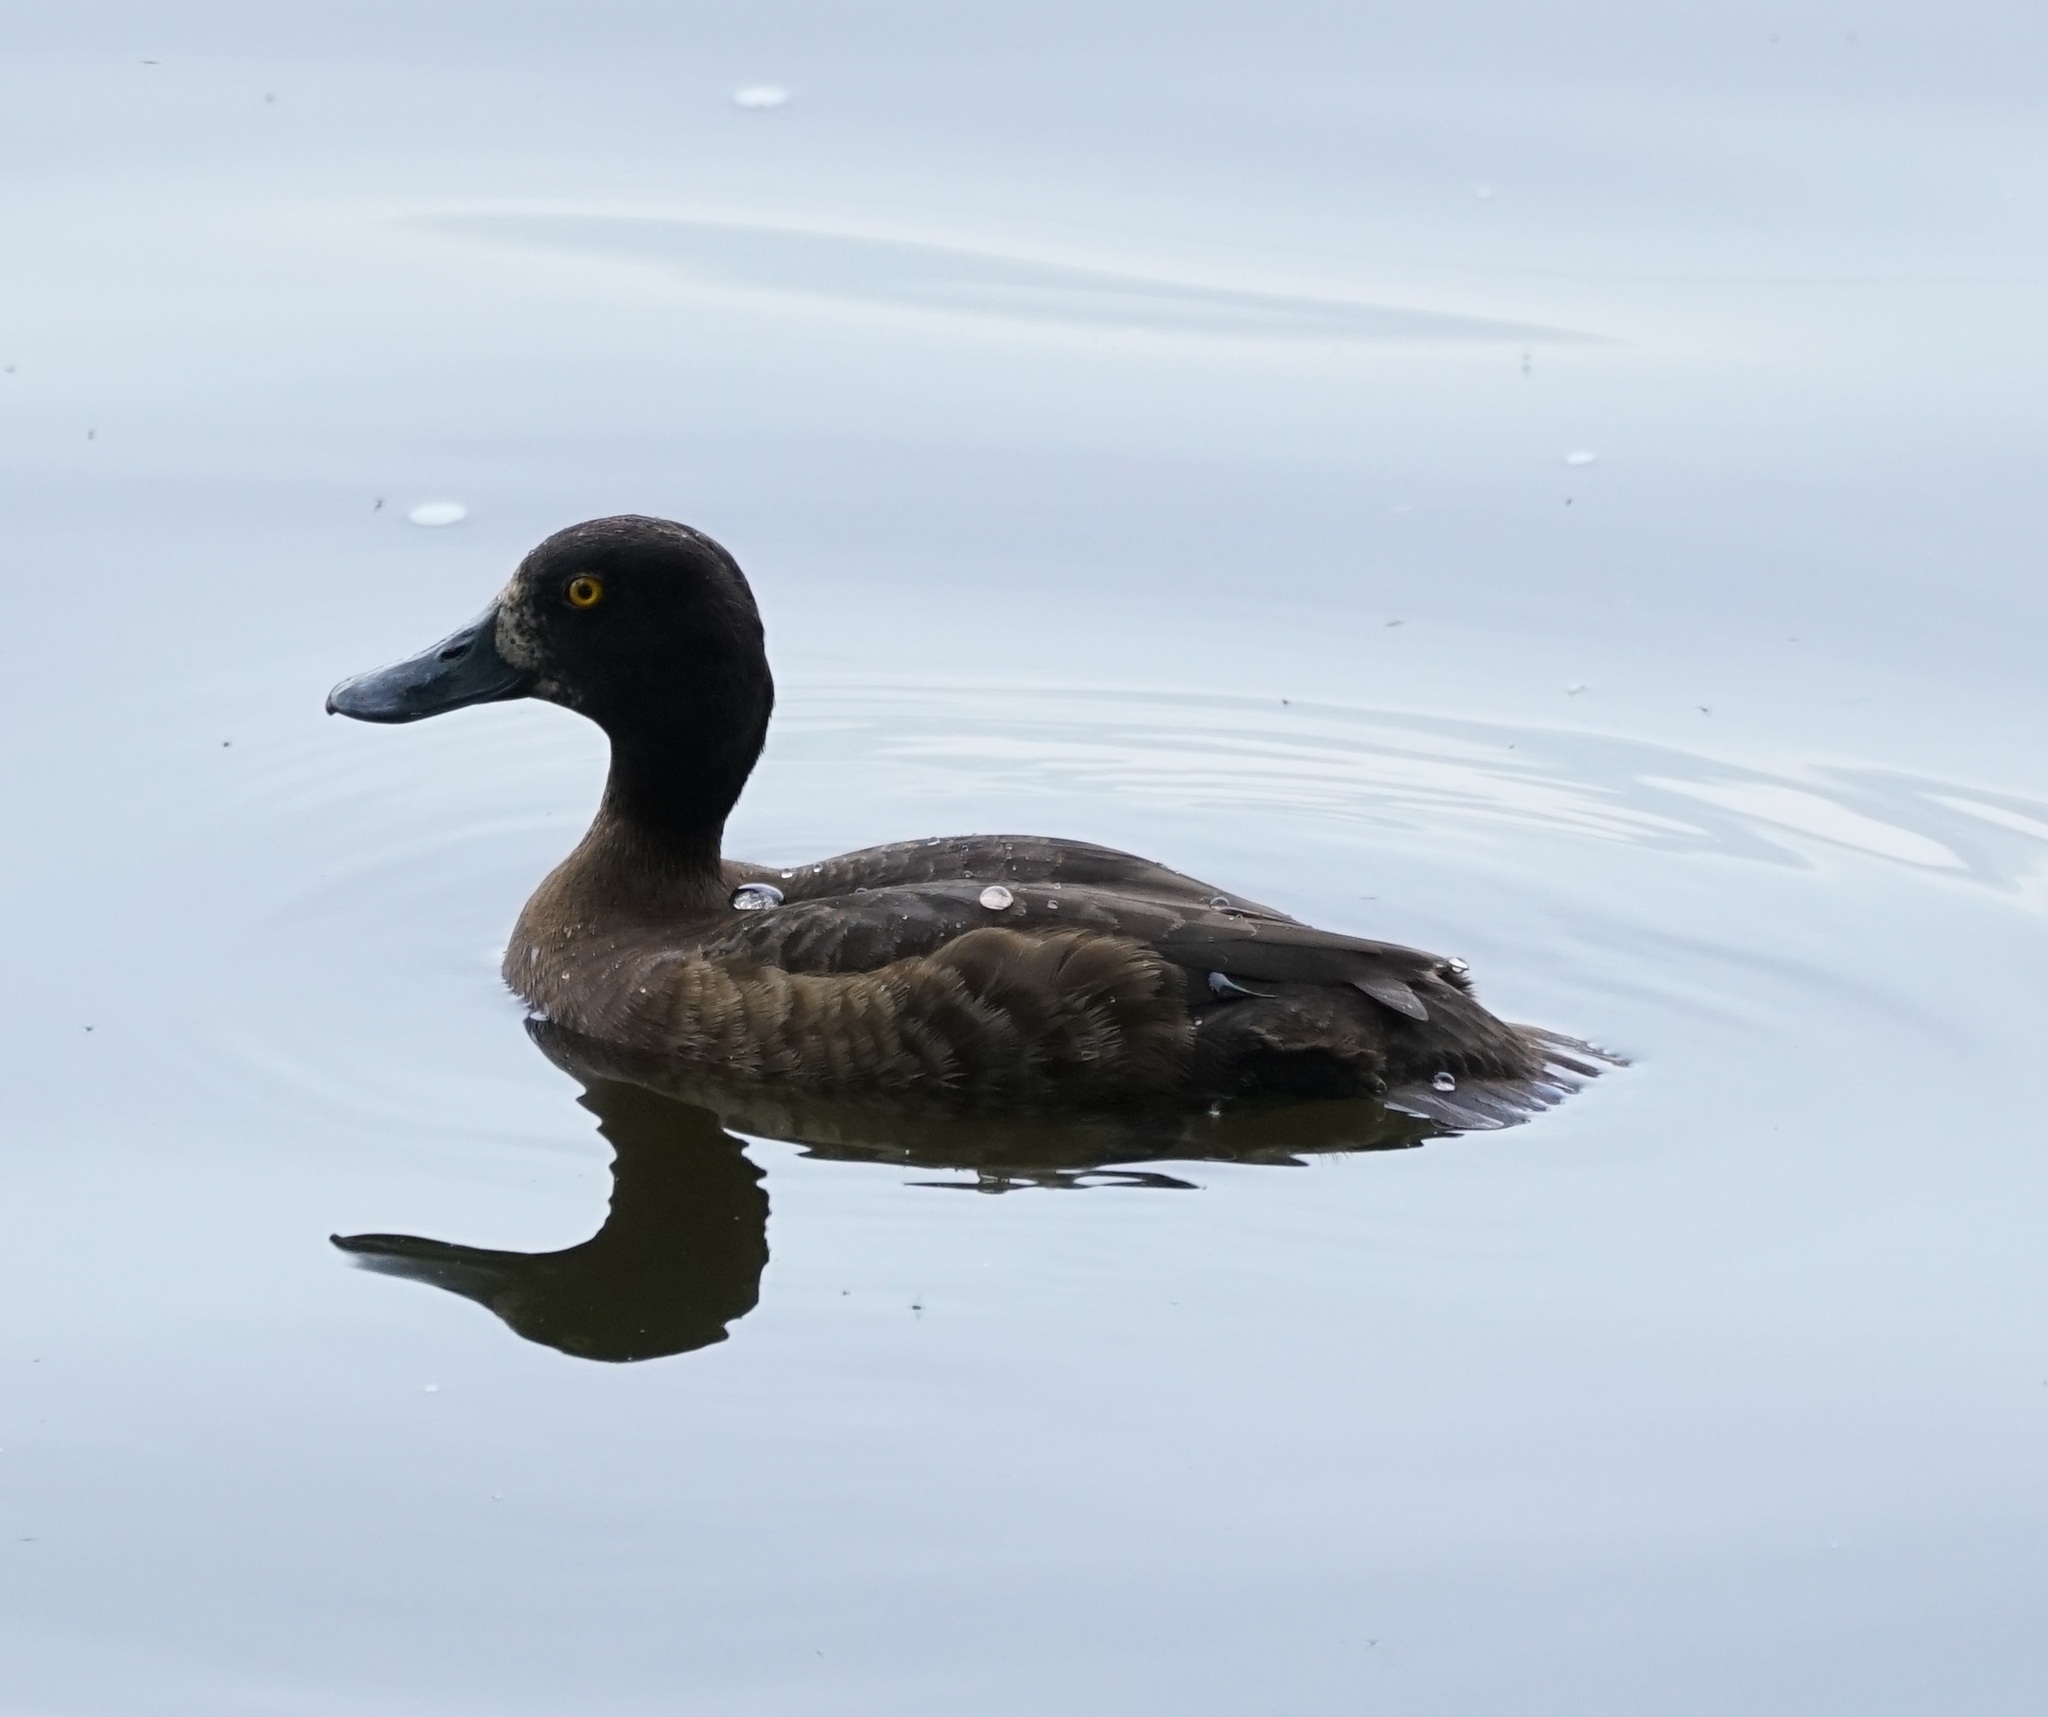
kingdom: Animalia
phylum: Chordata
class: Aves
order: Anseriformes
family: Anatidae
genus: Aythya
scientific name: Aythya fuligula
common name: Tufted duck
